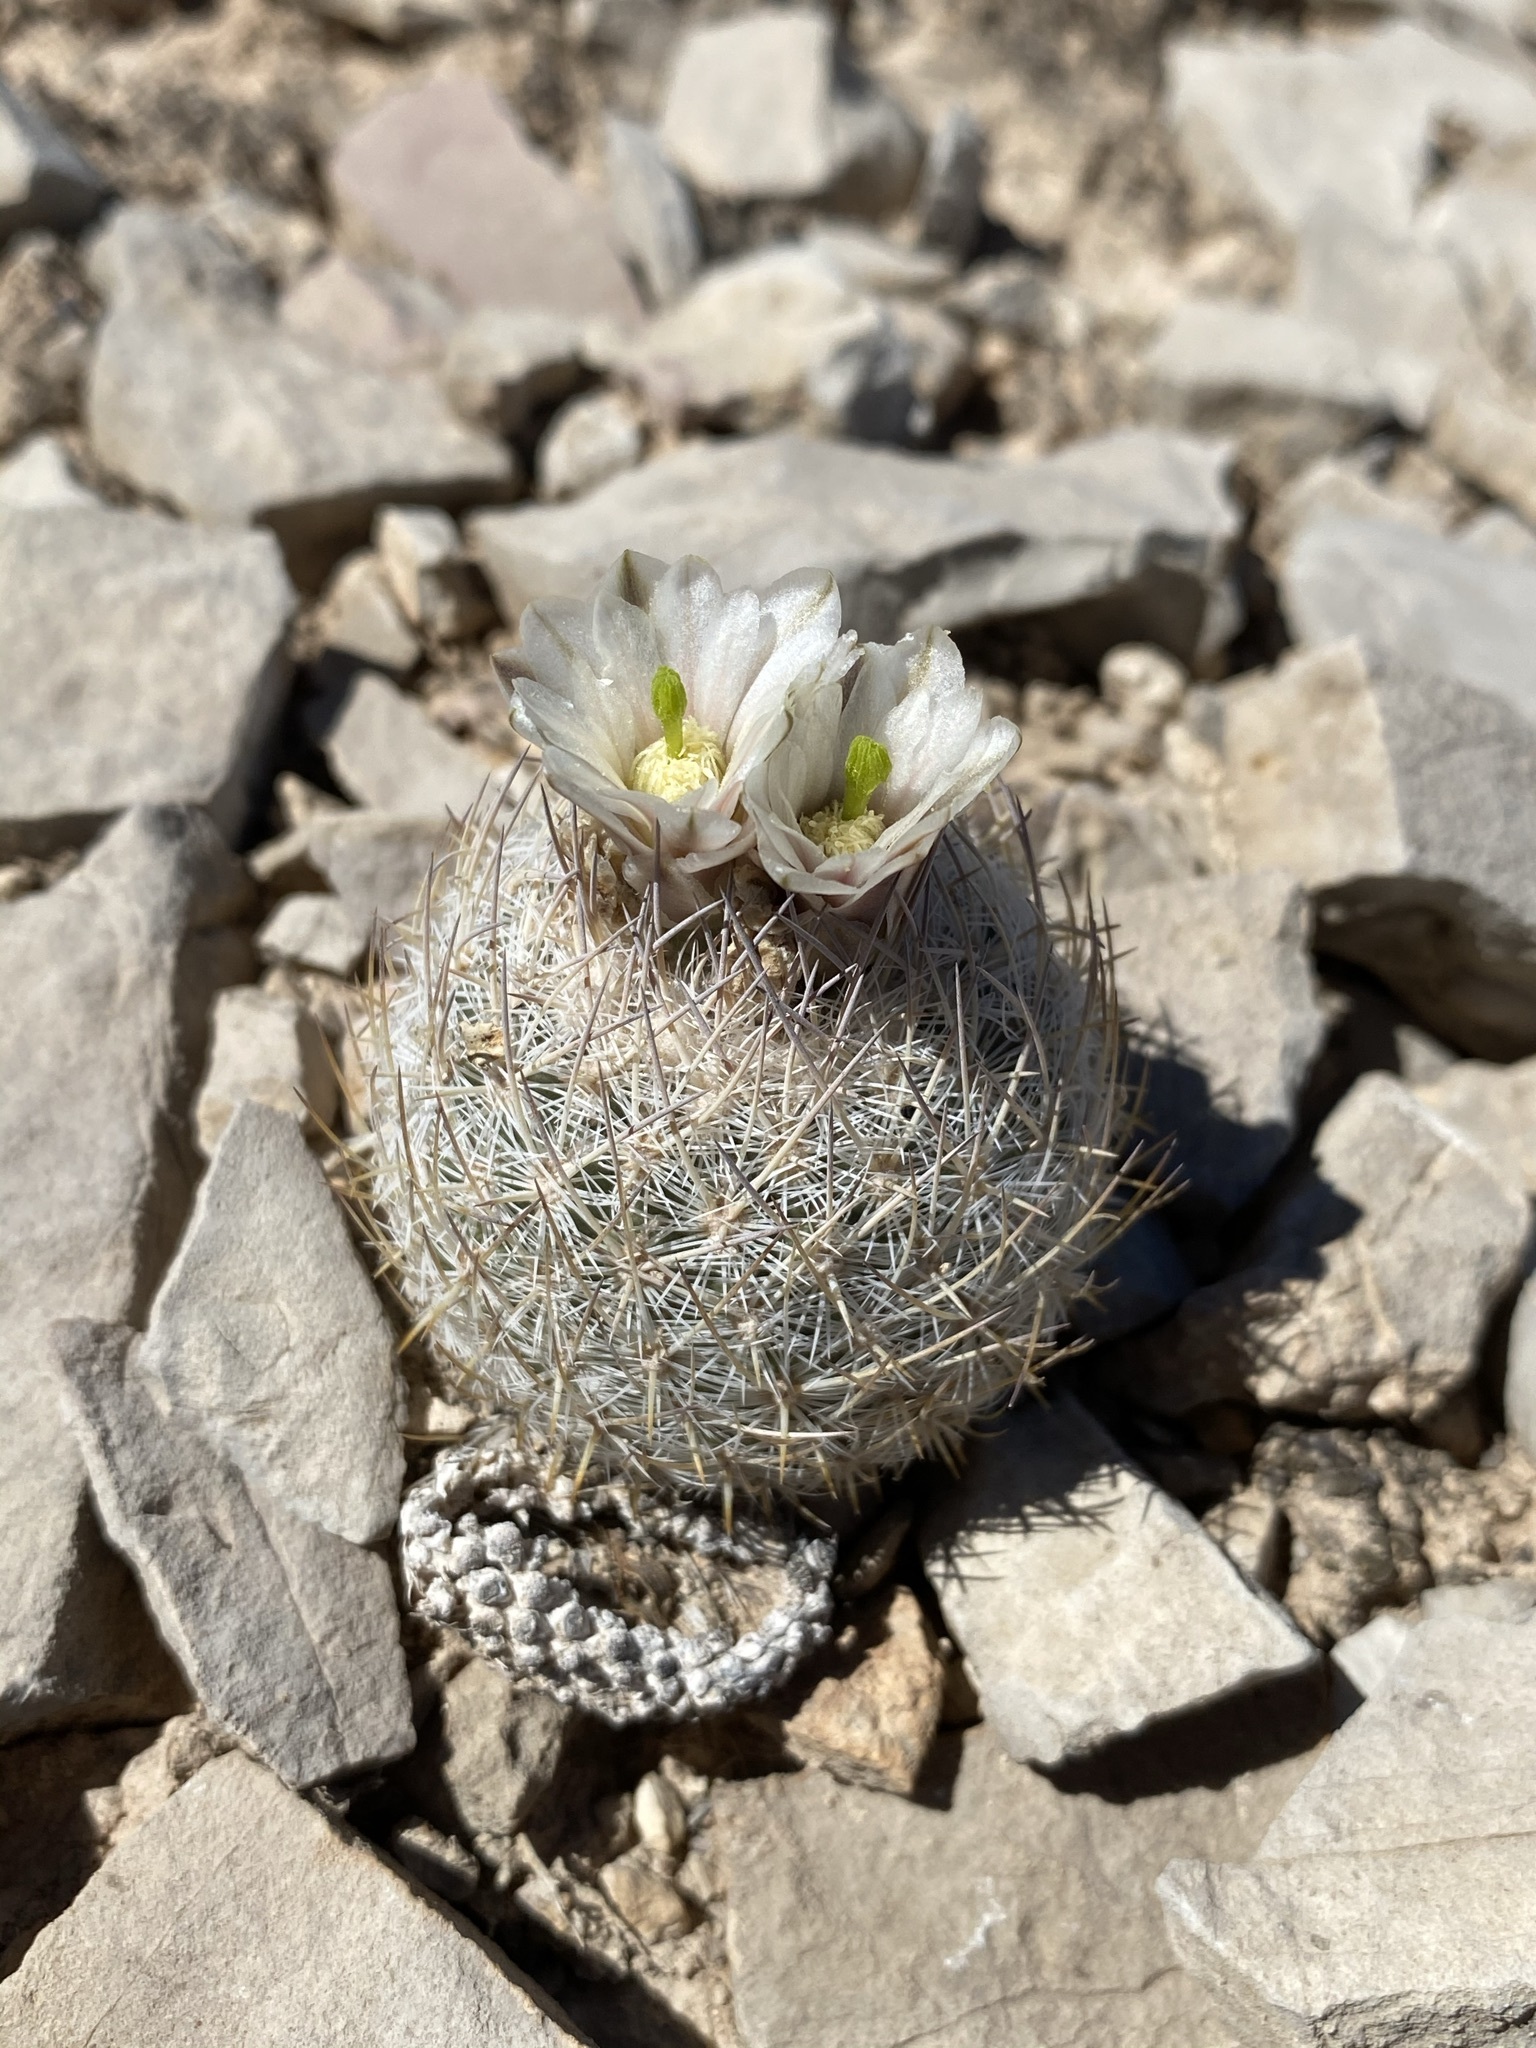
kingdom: Plantae
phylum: Tracheophyta
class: Magnoliopsida
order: Caryophyllales
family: Cactaceae
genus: Sclerocactus
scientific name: Sclerocactus mariposensis
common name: Golfball cactus
